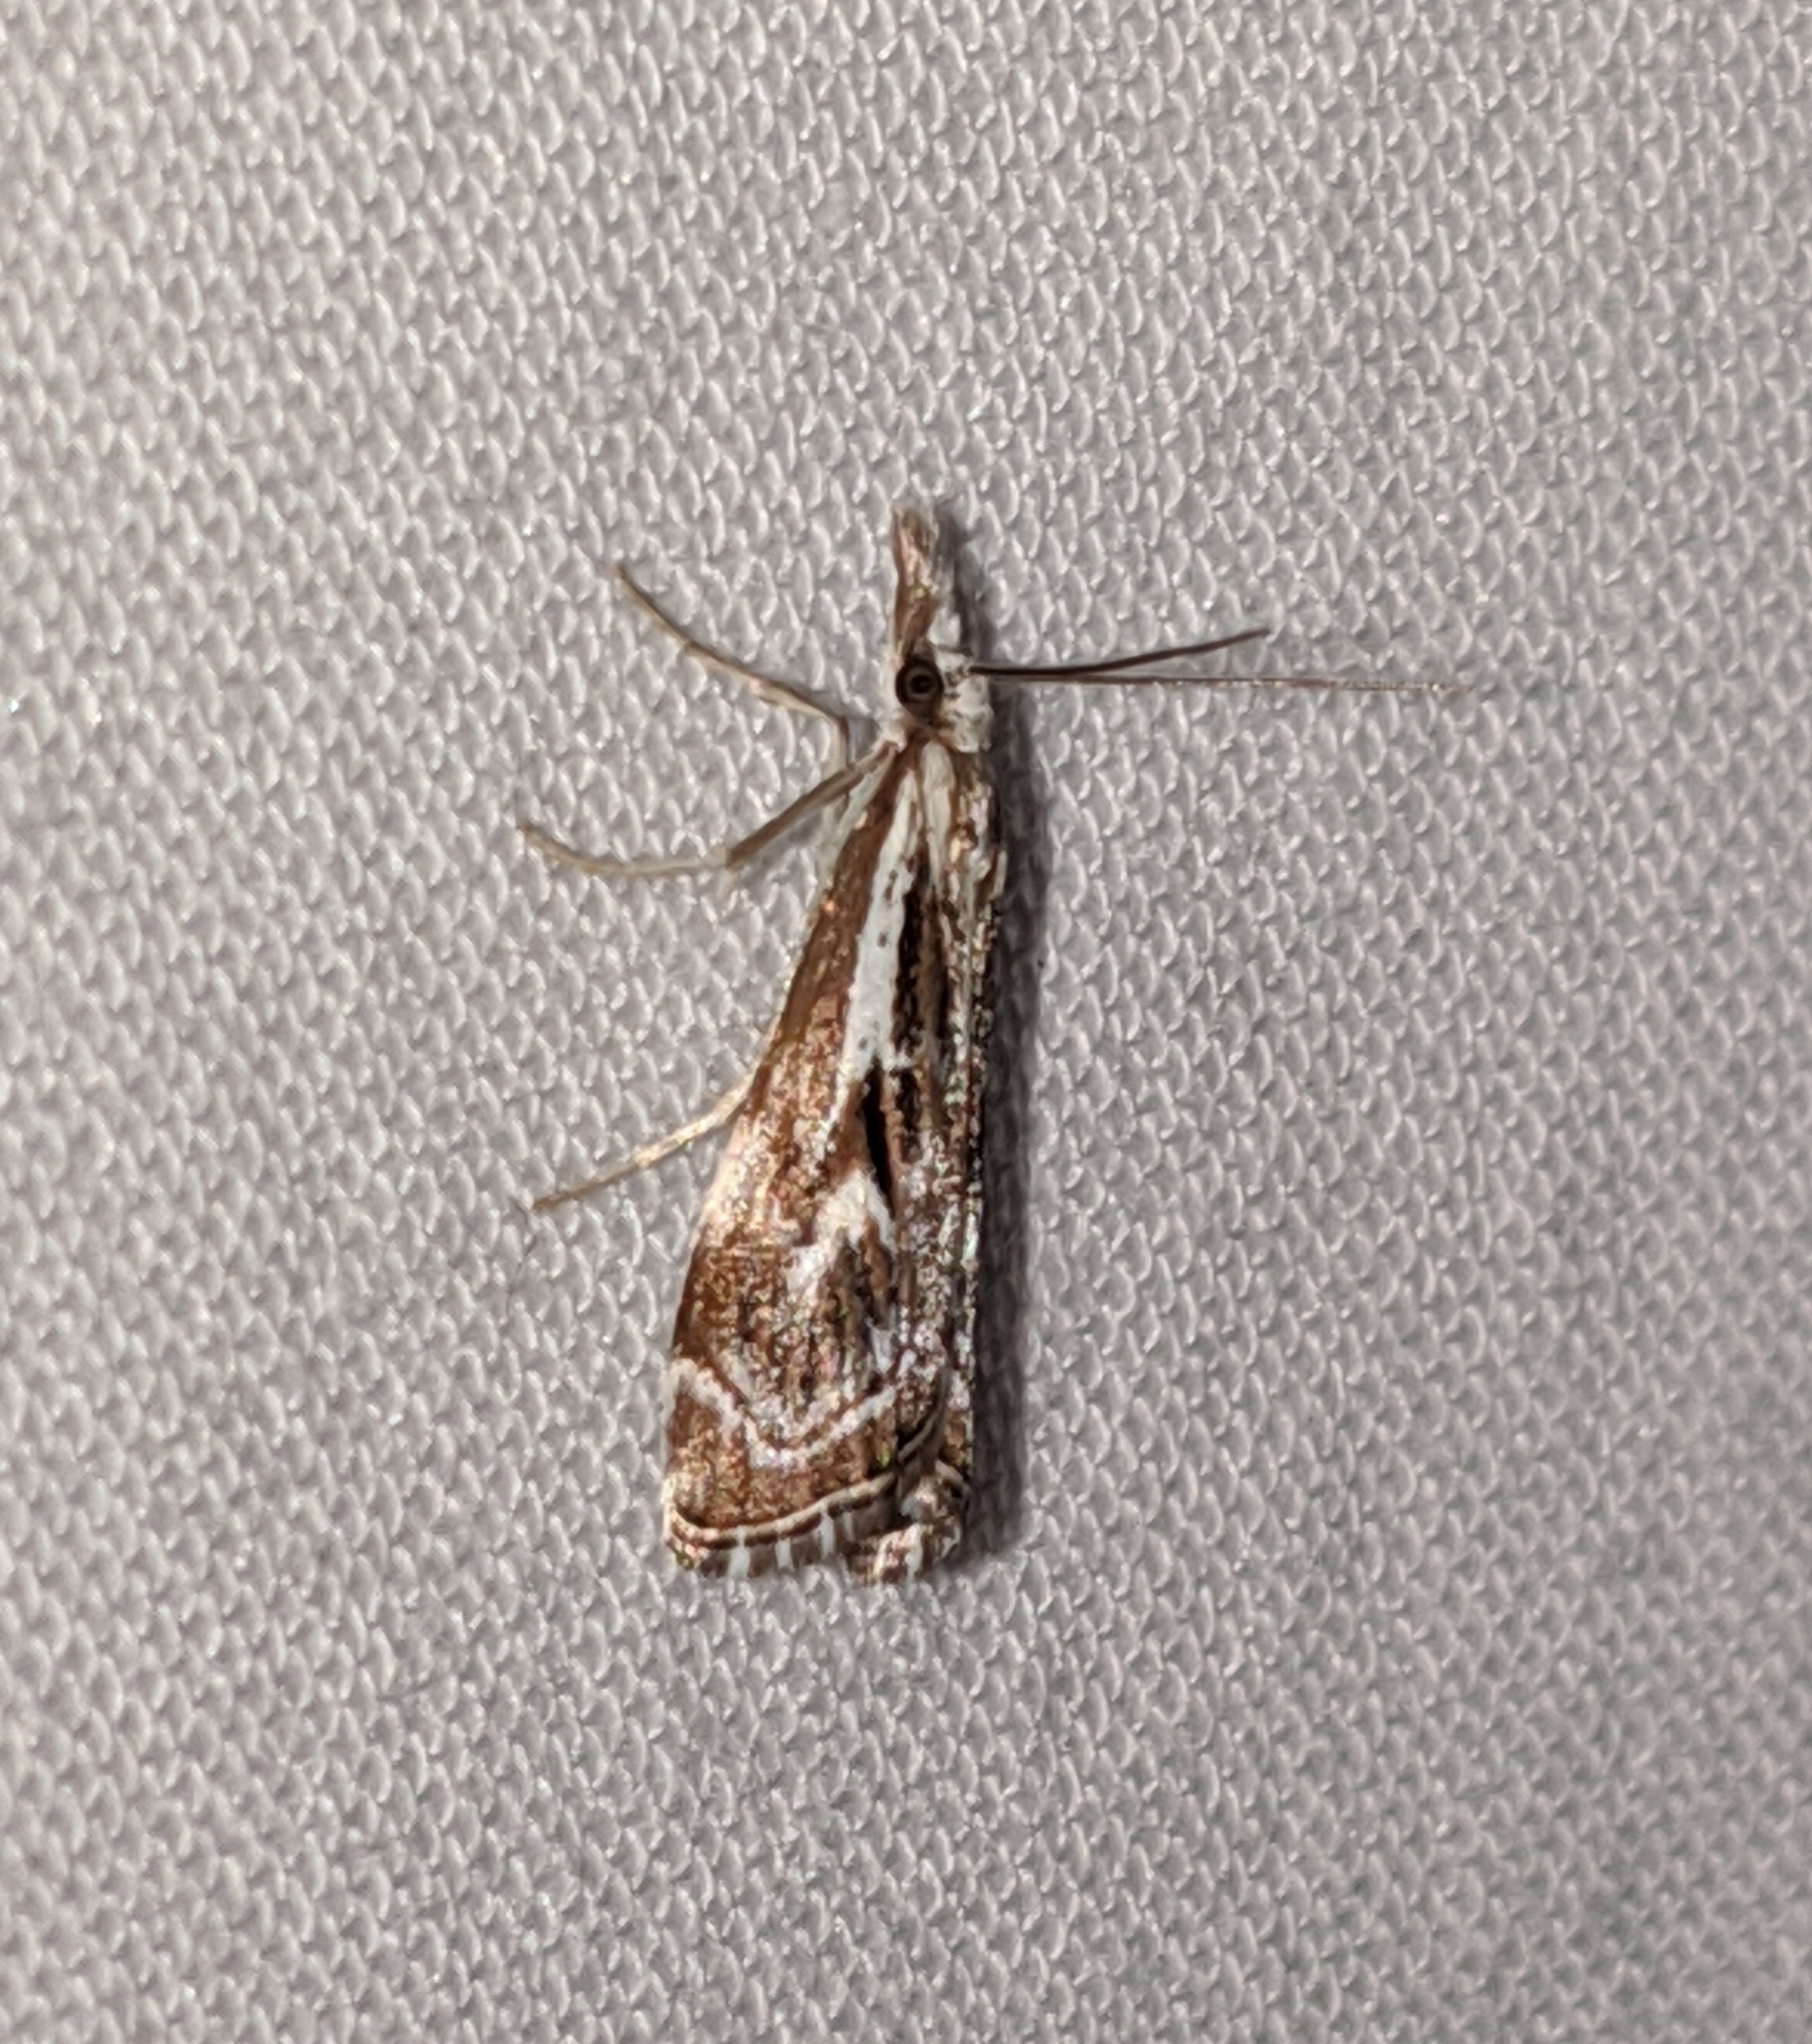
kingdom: Animalia
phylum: Arthropoda
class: Insecta
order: Lepidoptera
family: Crambidae
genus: Catoptria
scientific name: Catoptria oregonicus
